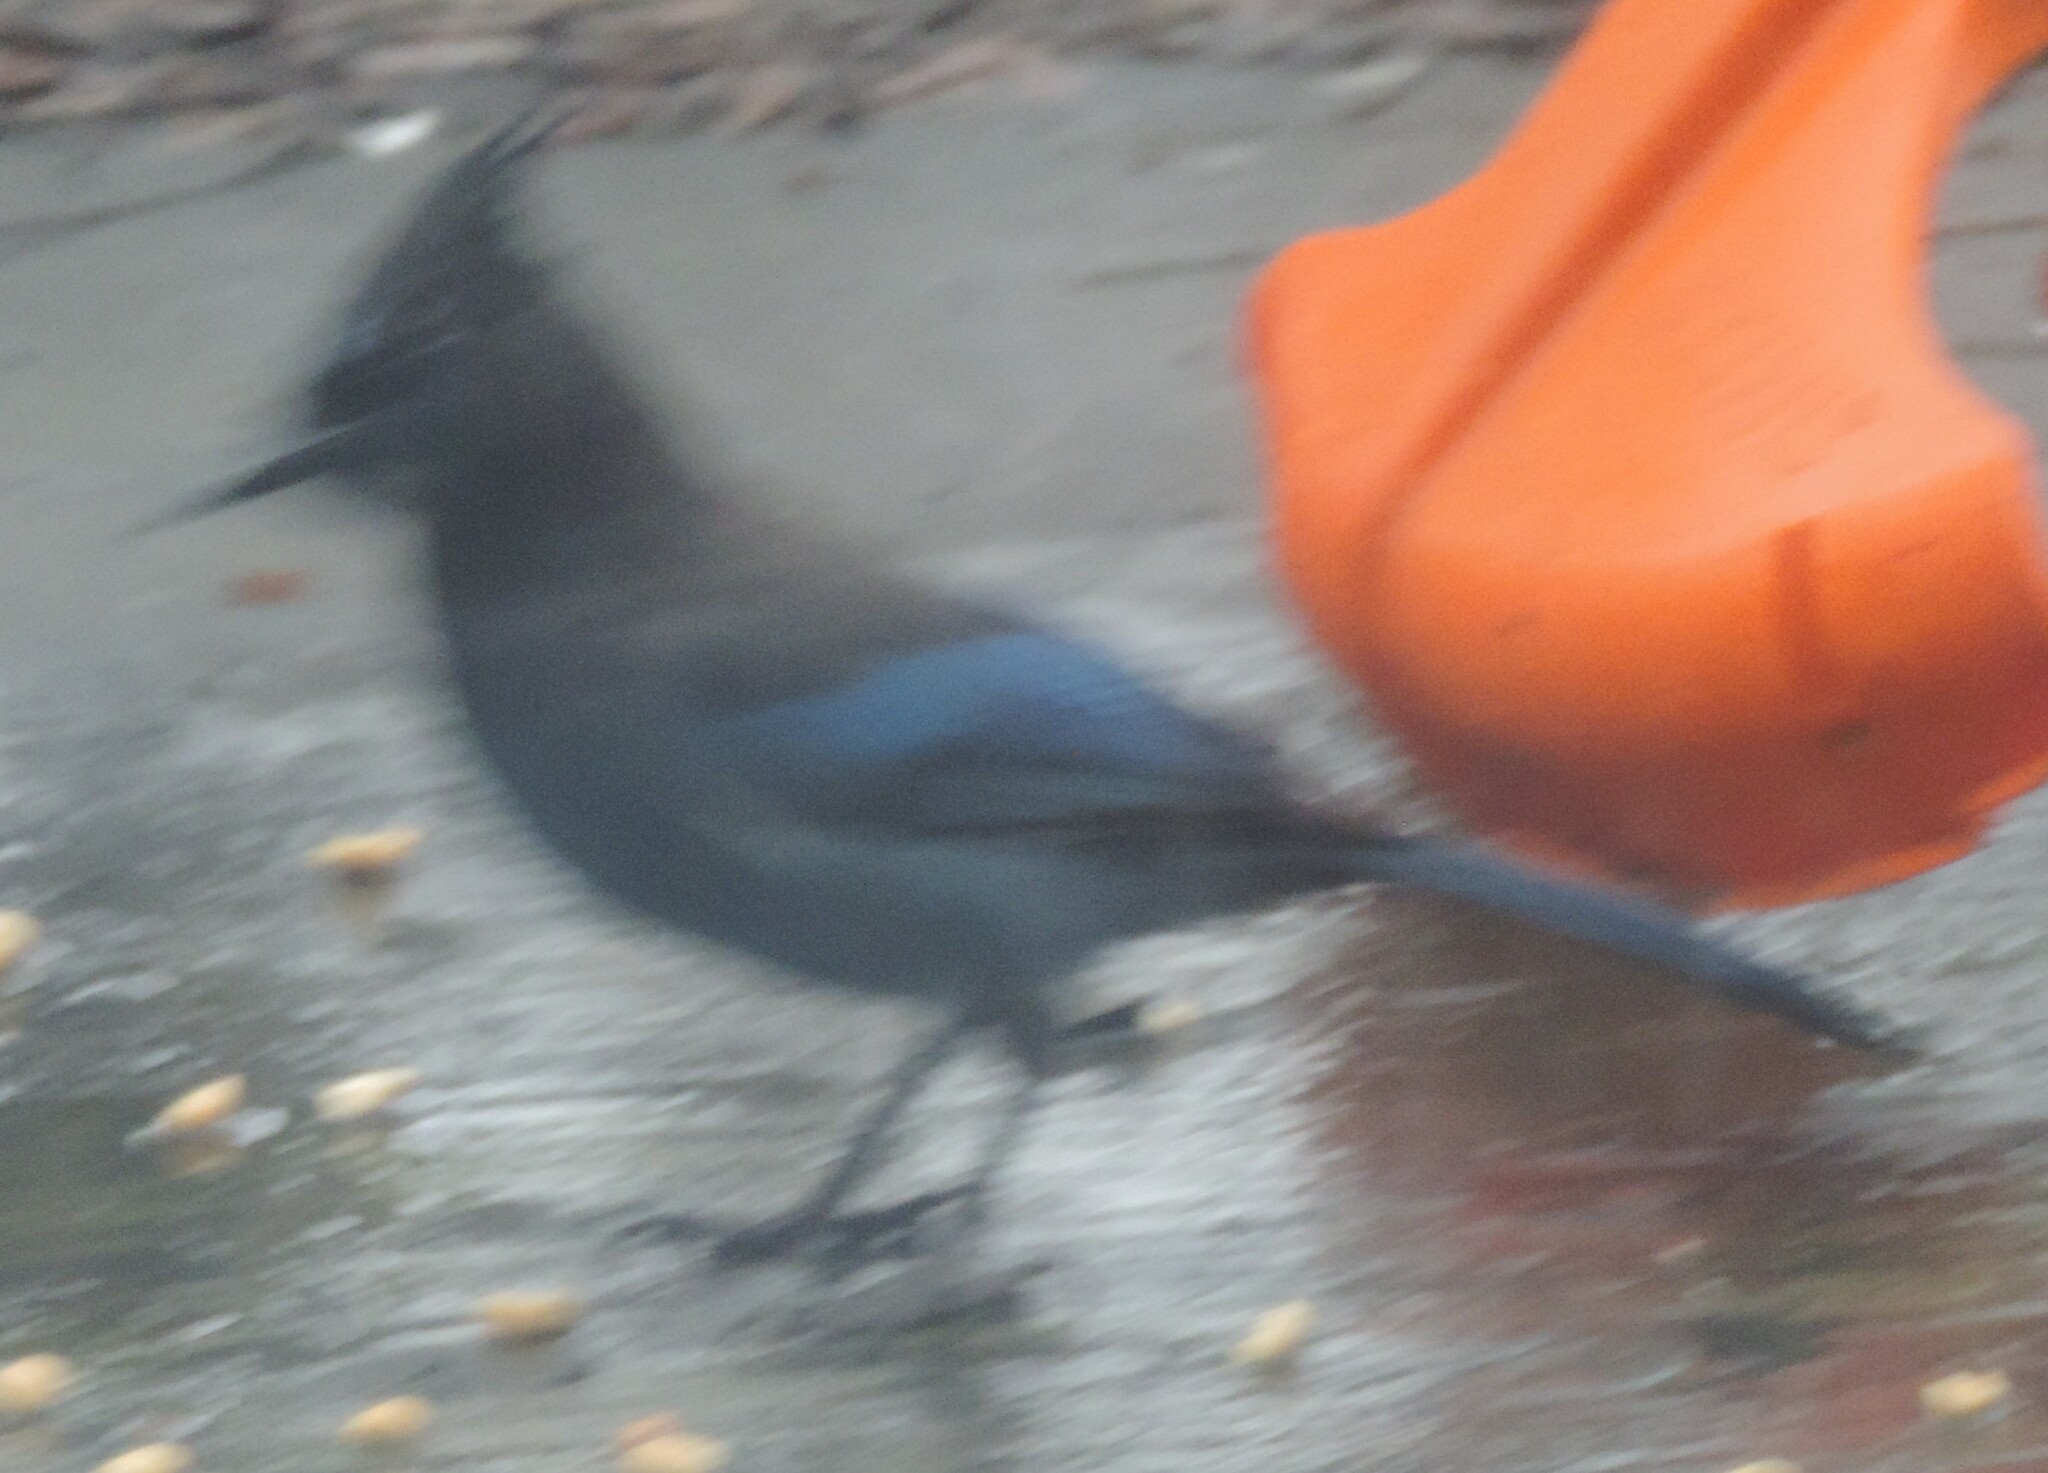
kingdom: Animalia
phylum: Chordata
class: Aves
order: Passeriformes
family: Corvidae
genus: Cyanocitta
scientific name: Cyanocitta stelleri
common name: Steller's jay
